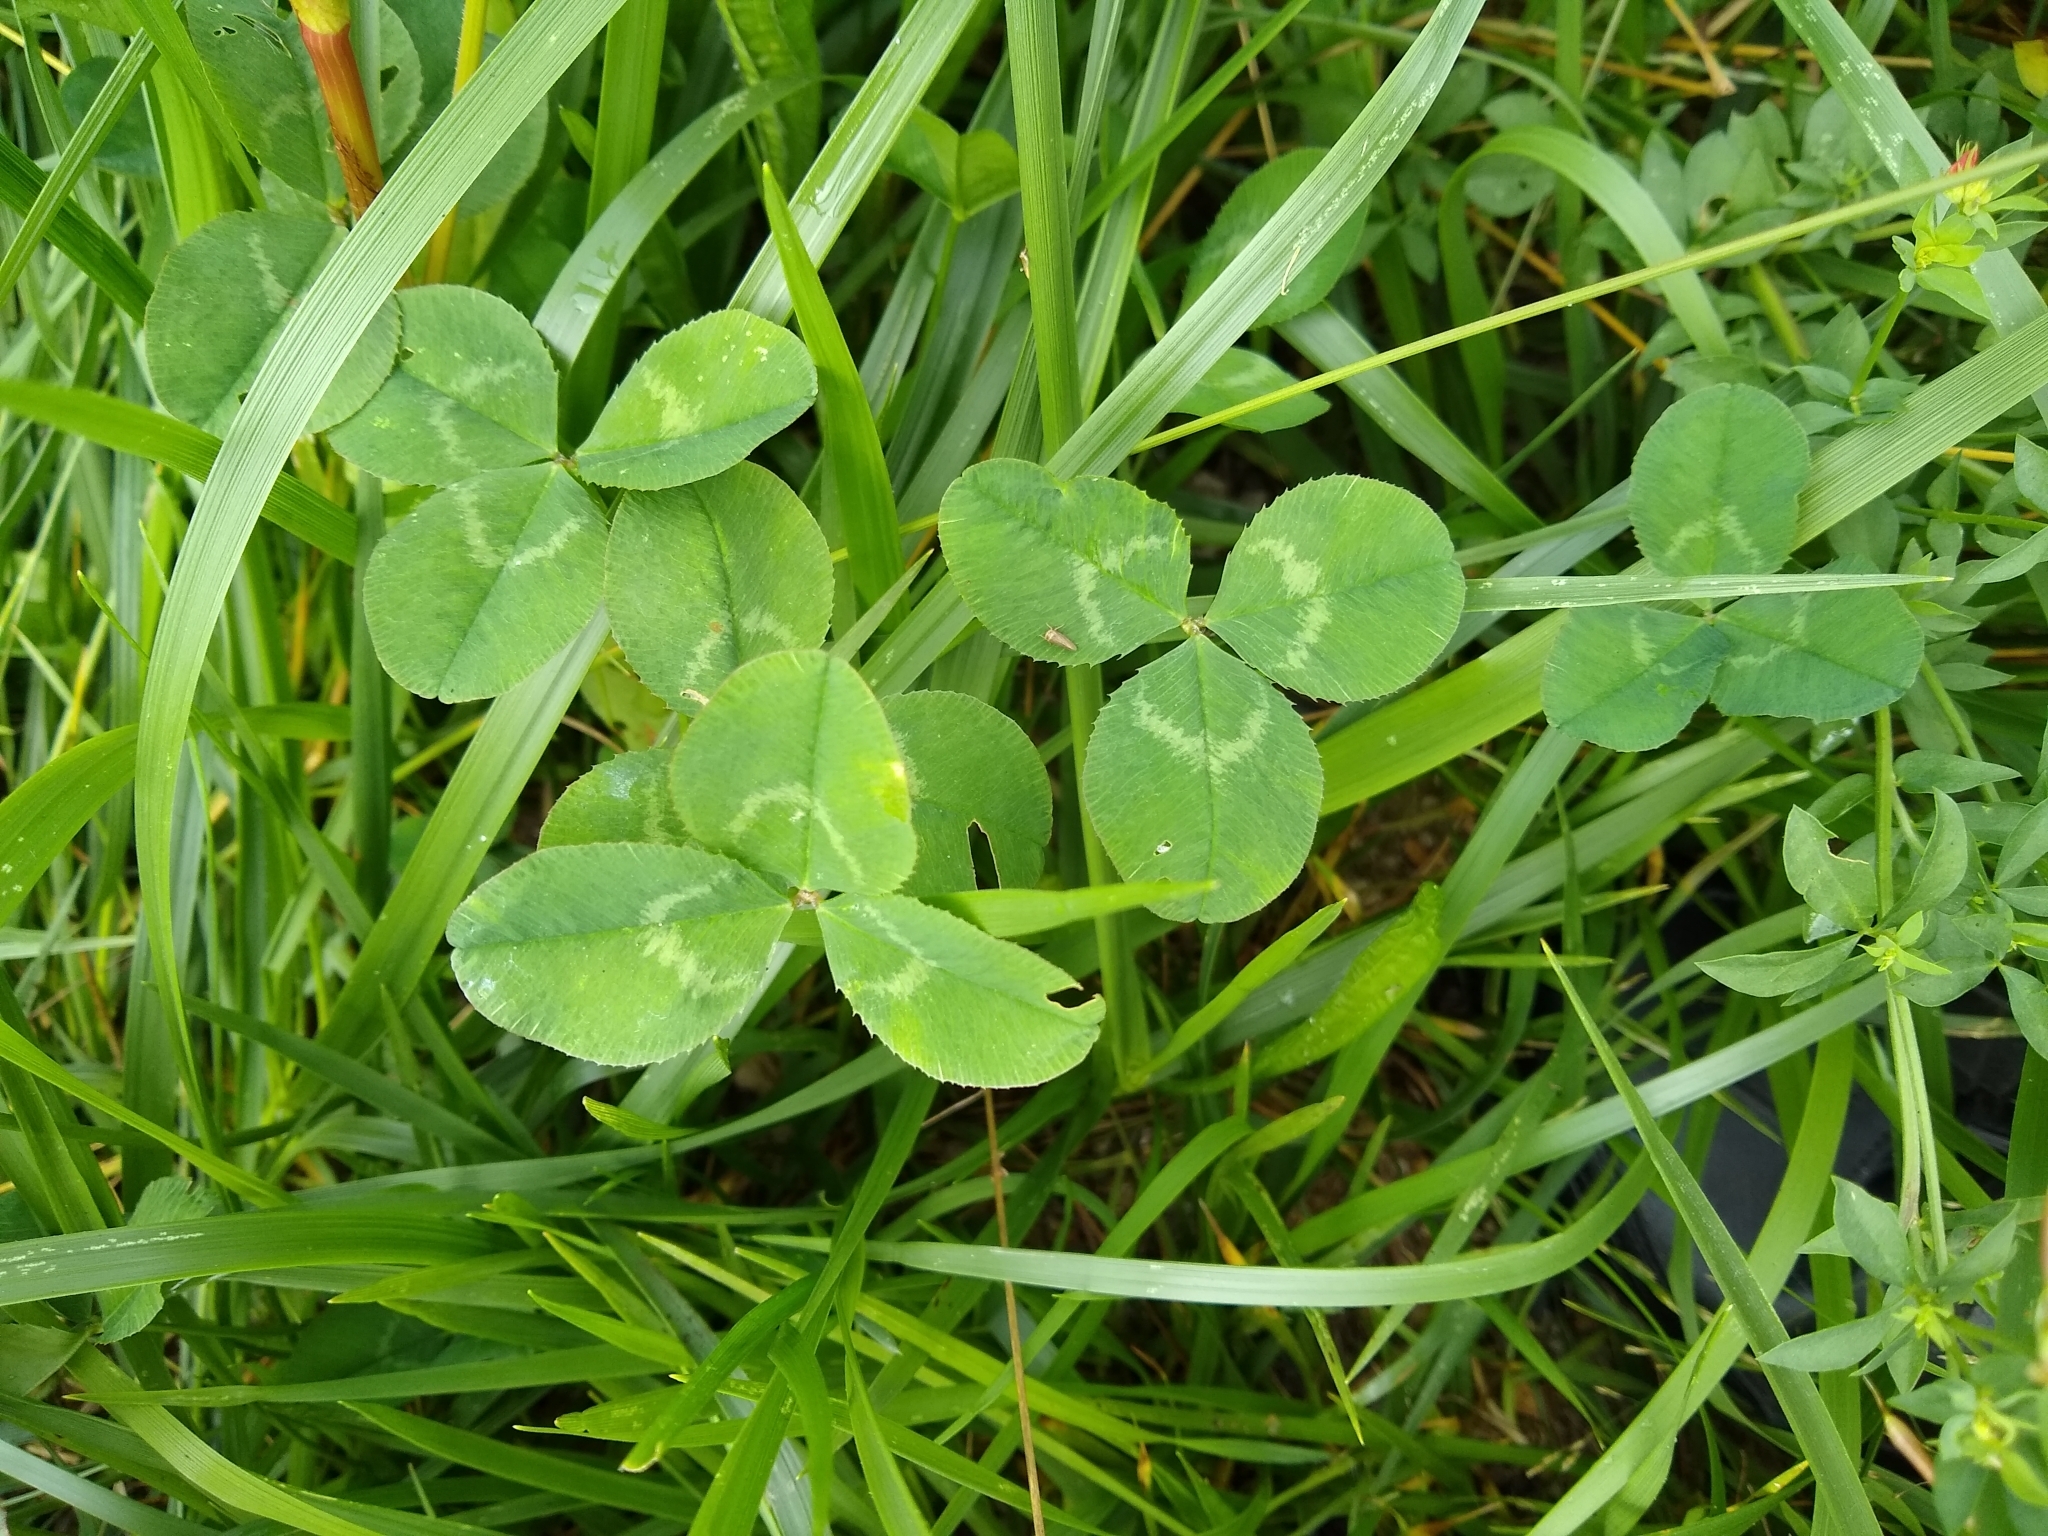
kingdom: Plantae
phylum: Tracheophyta
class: Magnoliopsida
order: Fabales
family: Fabaceae
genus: Trifolium
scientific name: Trifolium repens
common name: White clover
